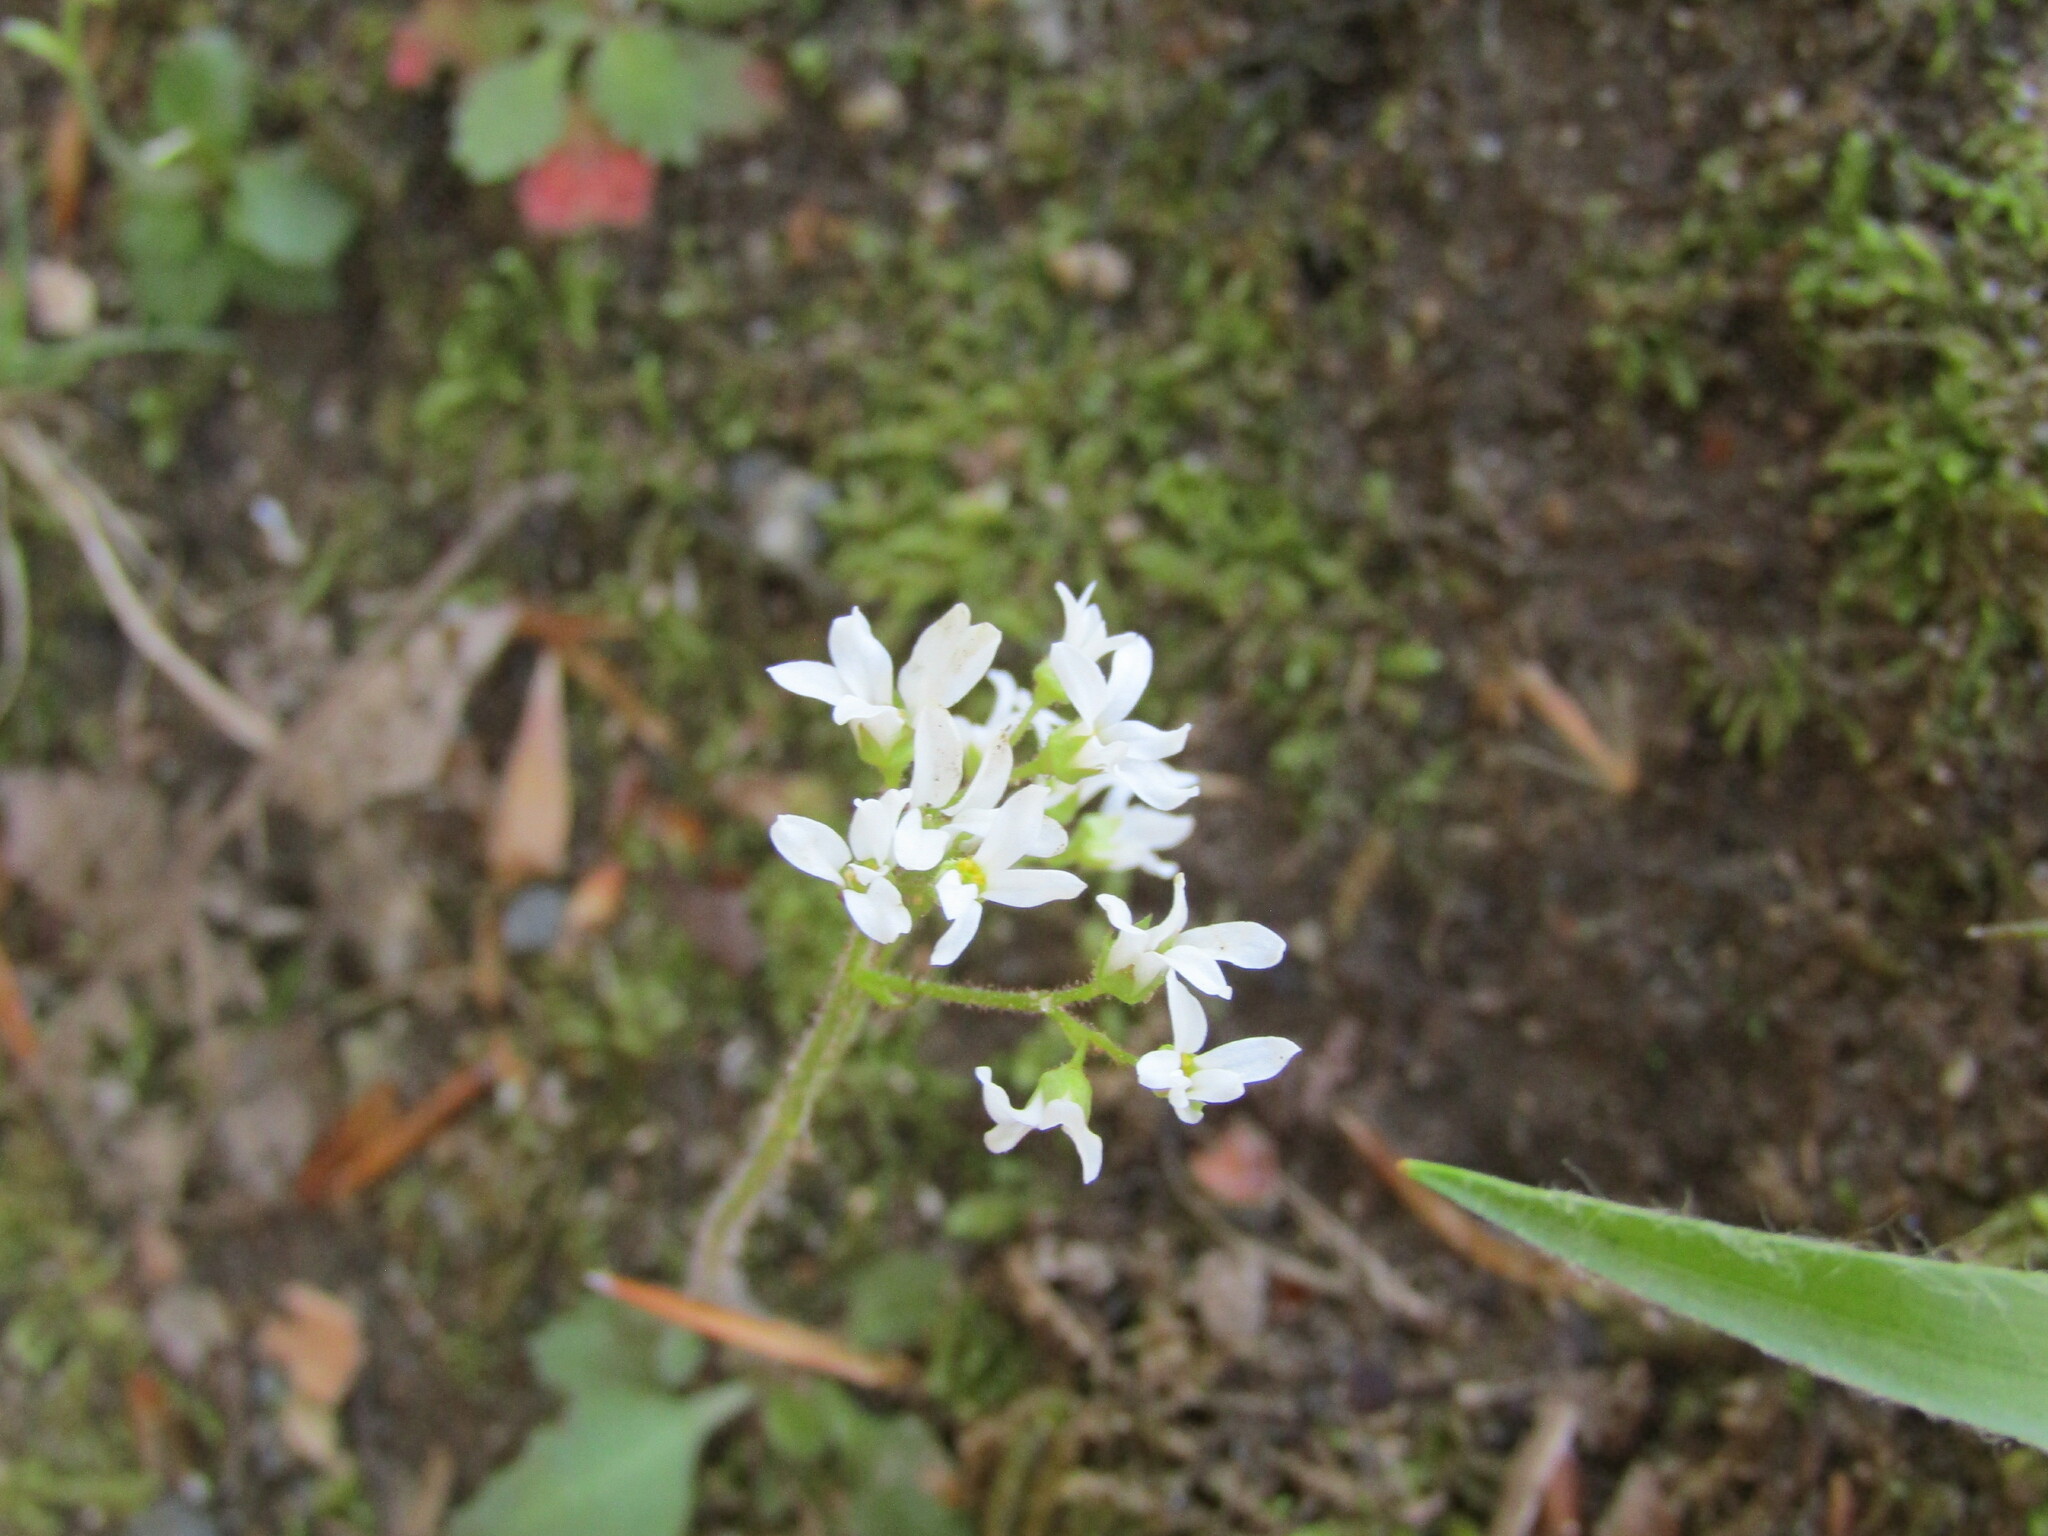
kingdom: Plantae
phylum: Tracheophyta
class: Magnoliopsida
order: Saxifragales
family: Saxifragaceae
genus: Micranthes
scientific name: Micranthes virginiensis
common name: Early saxifrage
